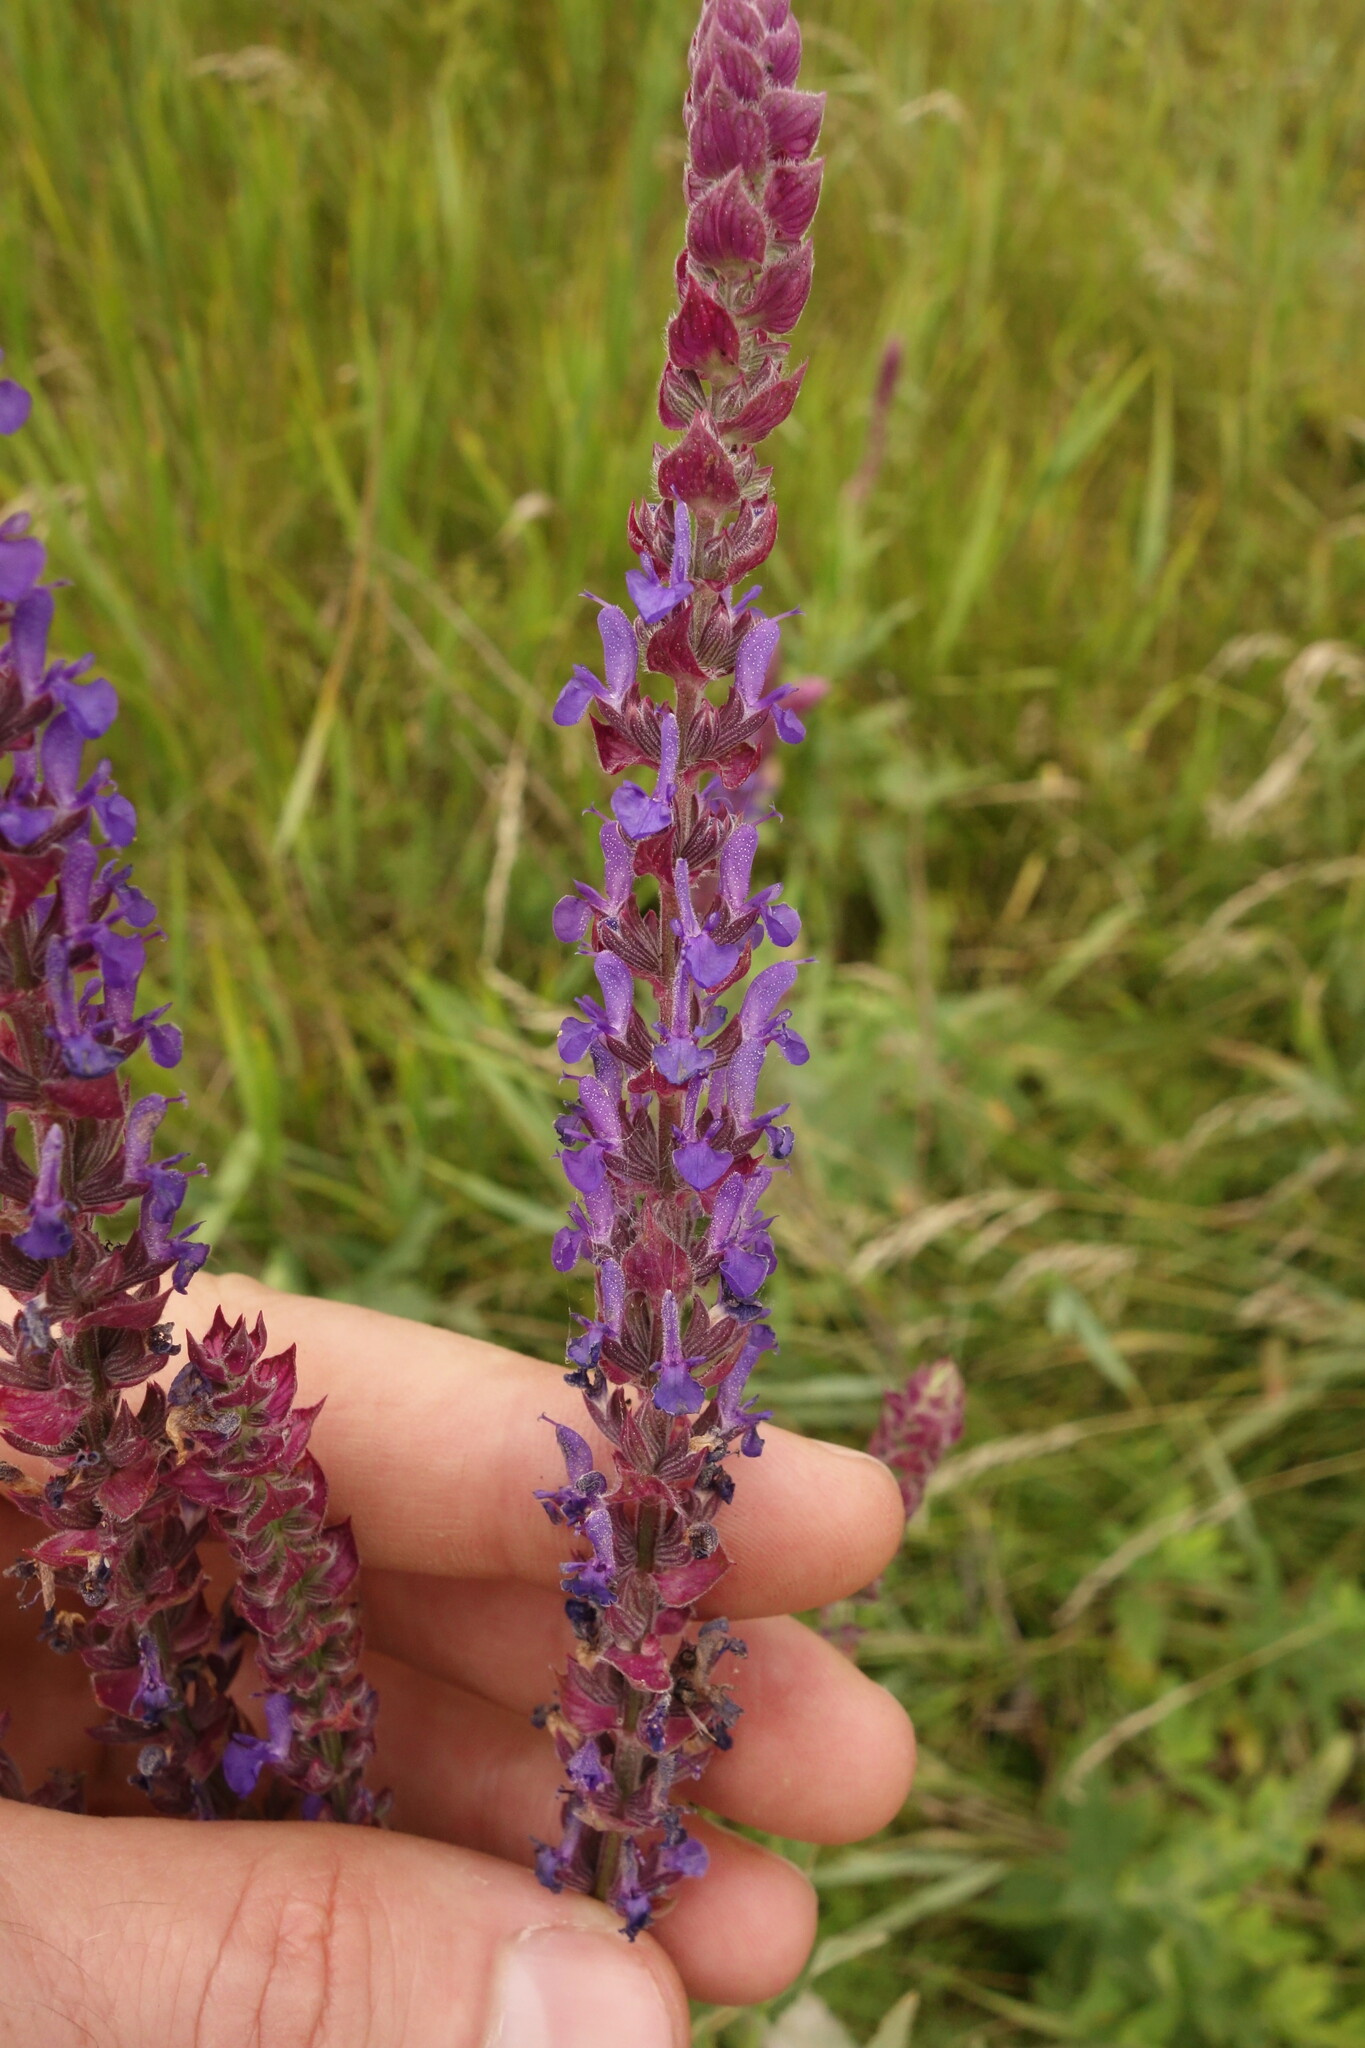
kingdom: Plantae
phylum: Tracheophyta
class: Magnoliopsida
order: Lamiales
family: Lamiaceae
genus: Salvia
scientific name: Salvia nemorosa
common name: Balkan clary
